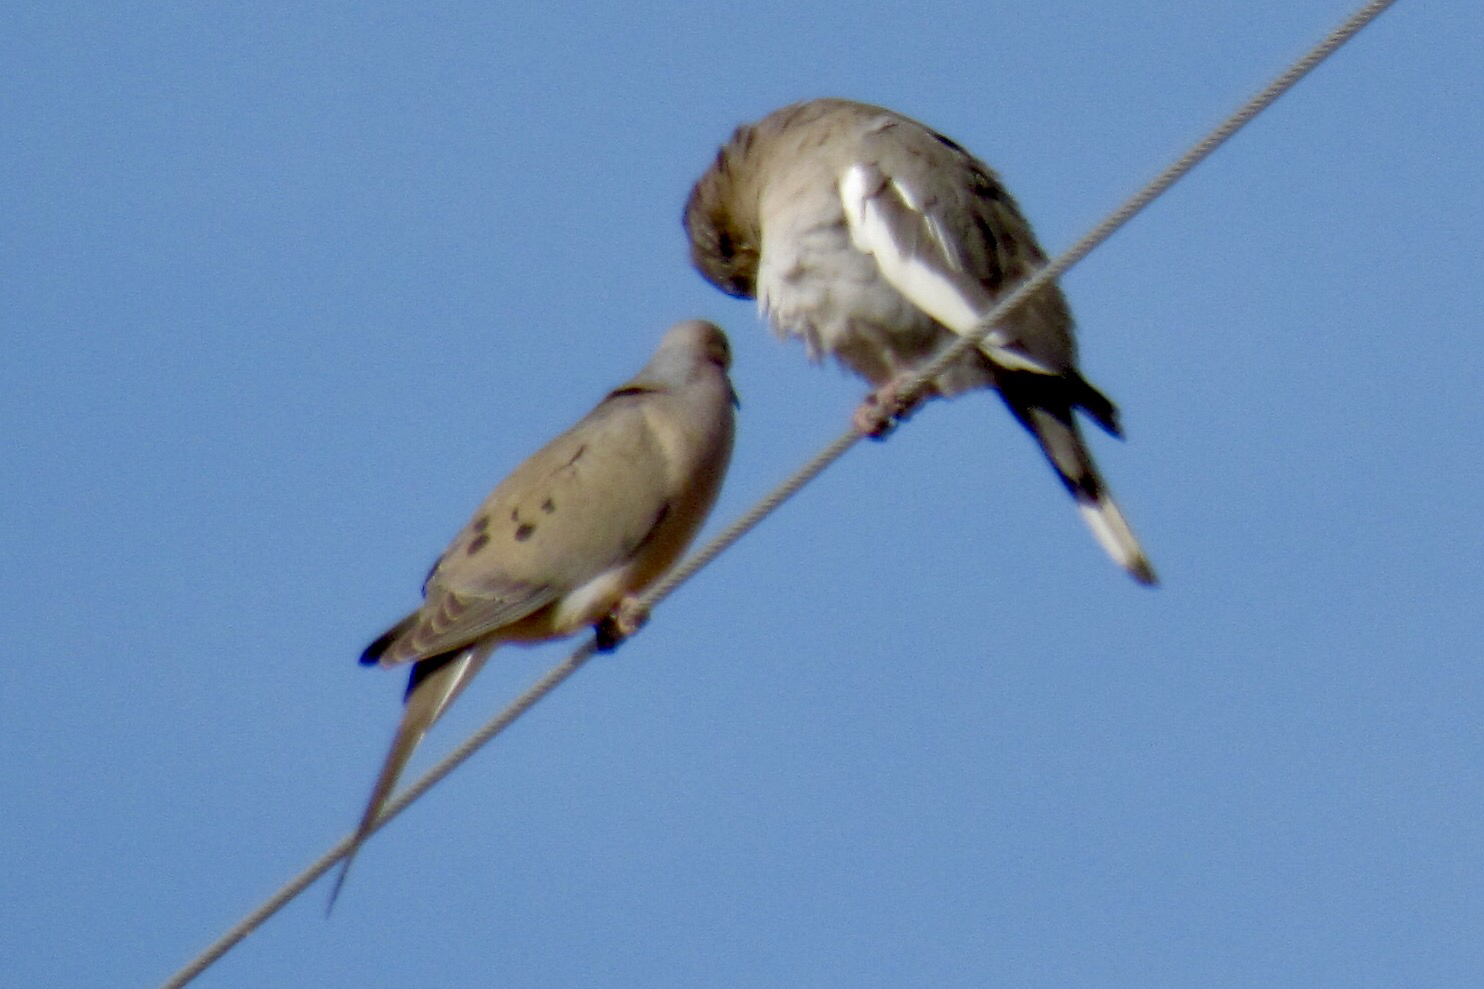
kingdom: Animalia
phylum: Chordata
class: Aves
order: Columbiformes
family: Columbidae
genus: Zenaida
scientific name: Zenaida macroura
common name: Mourning dove
